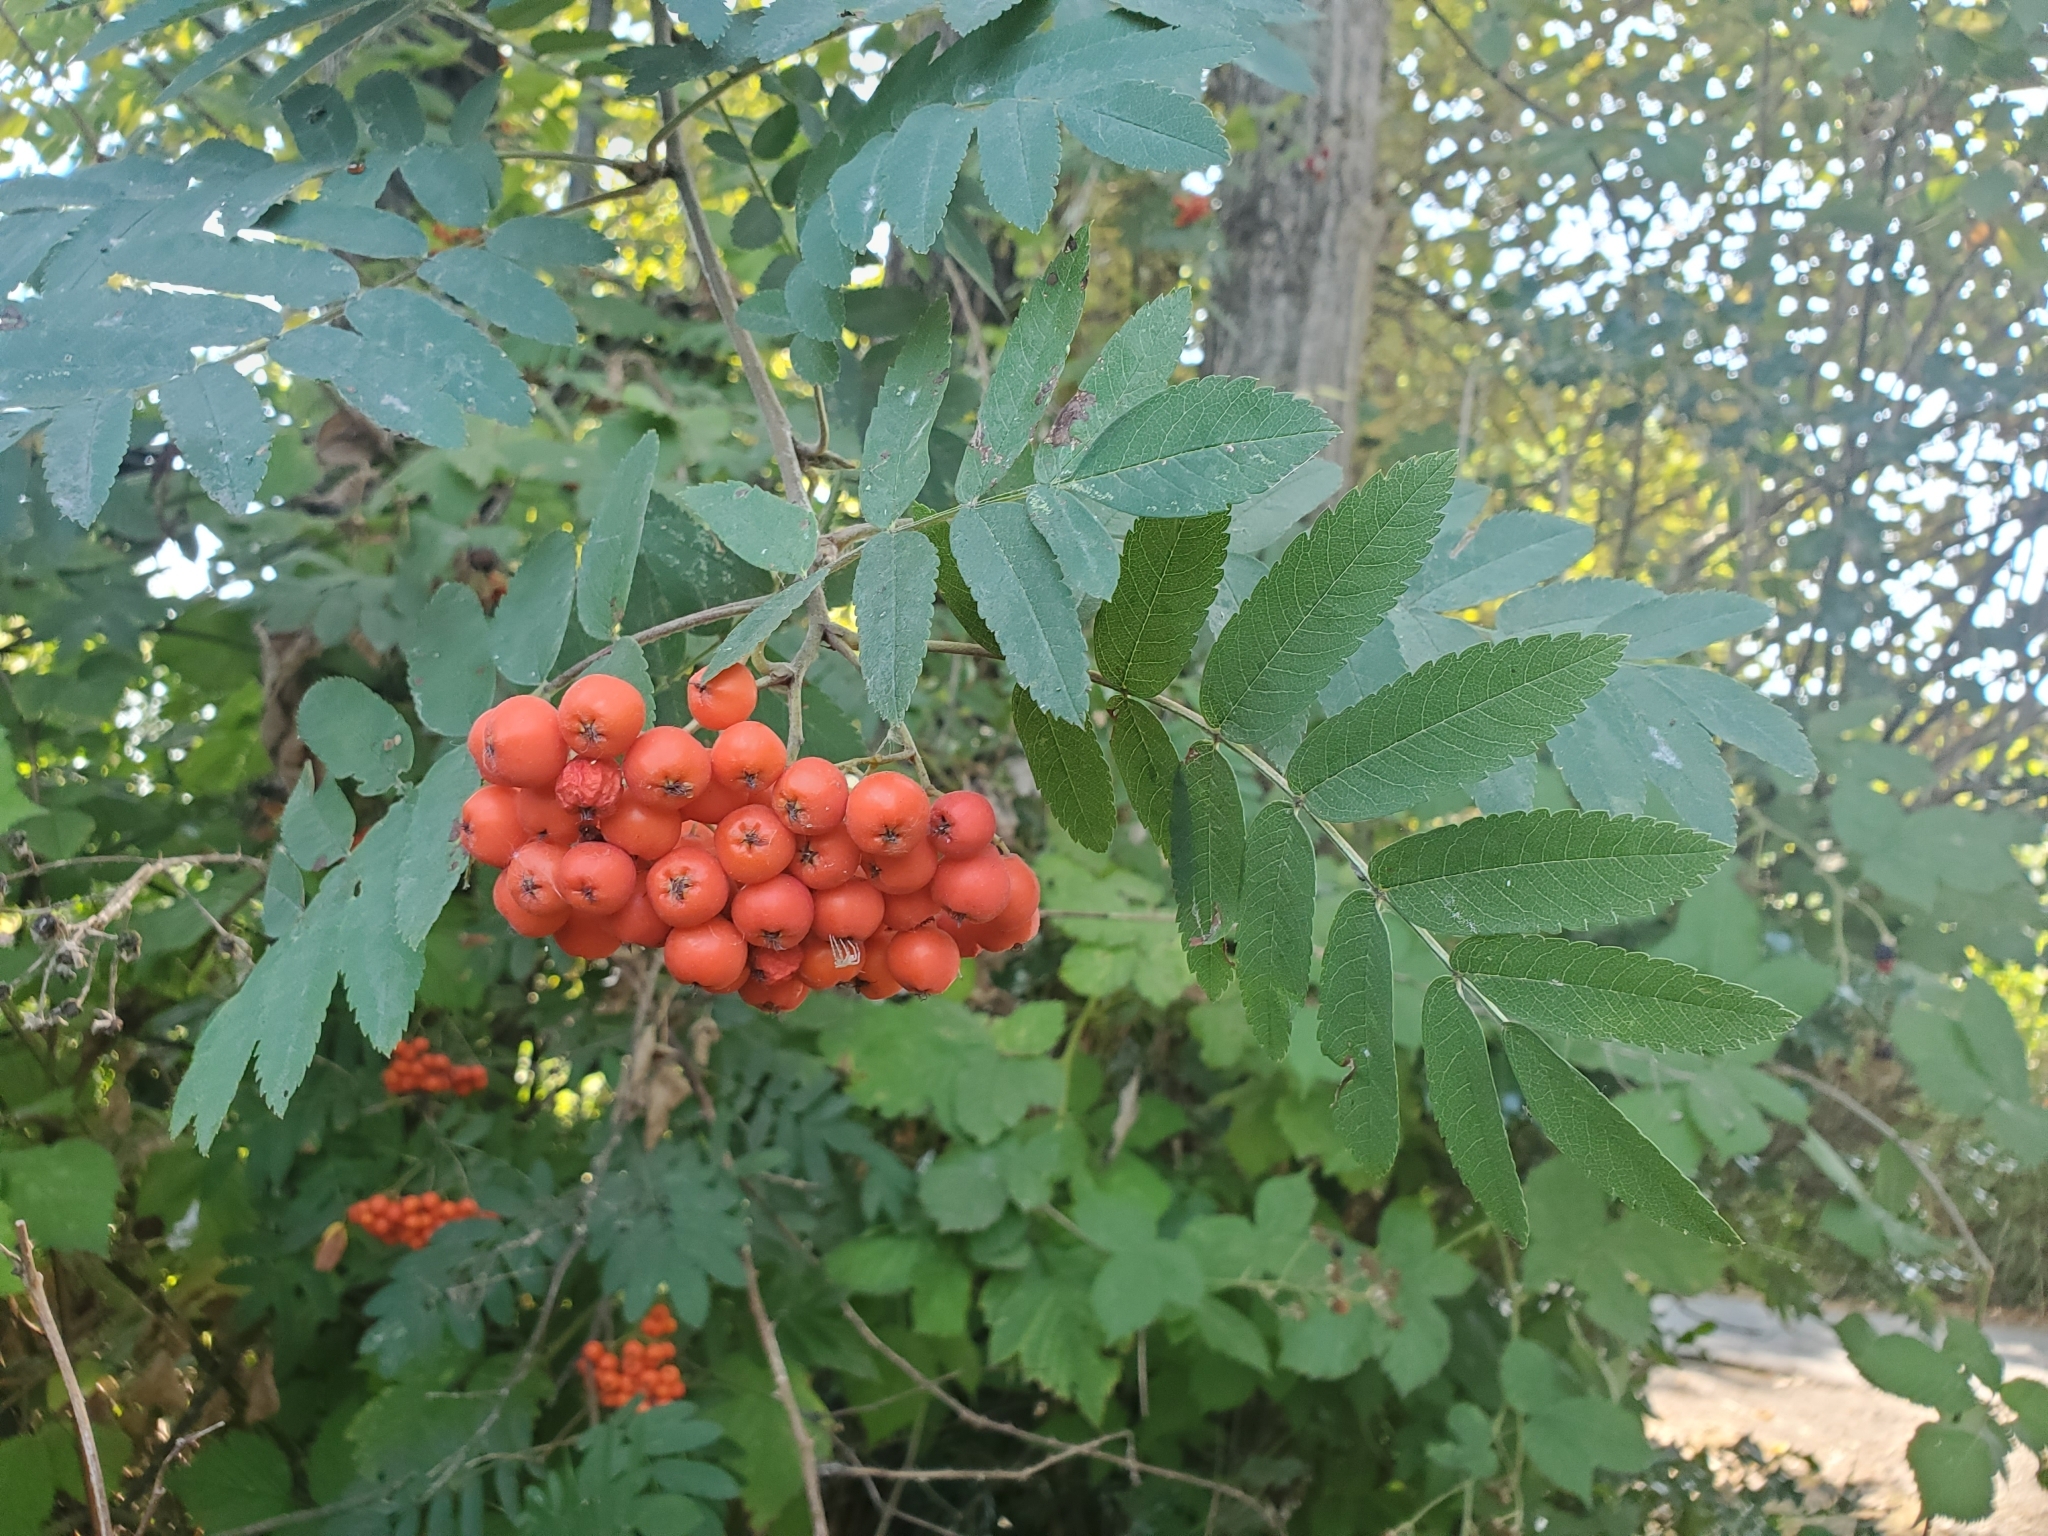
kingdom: Plantae
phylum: Tracheophyta
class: Magnoliopsida
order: Rosales
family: Rosaceae
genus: Sorbus
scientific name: Sorbus aucuparia
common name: Rowan
